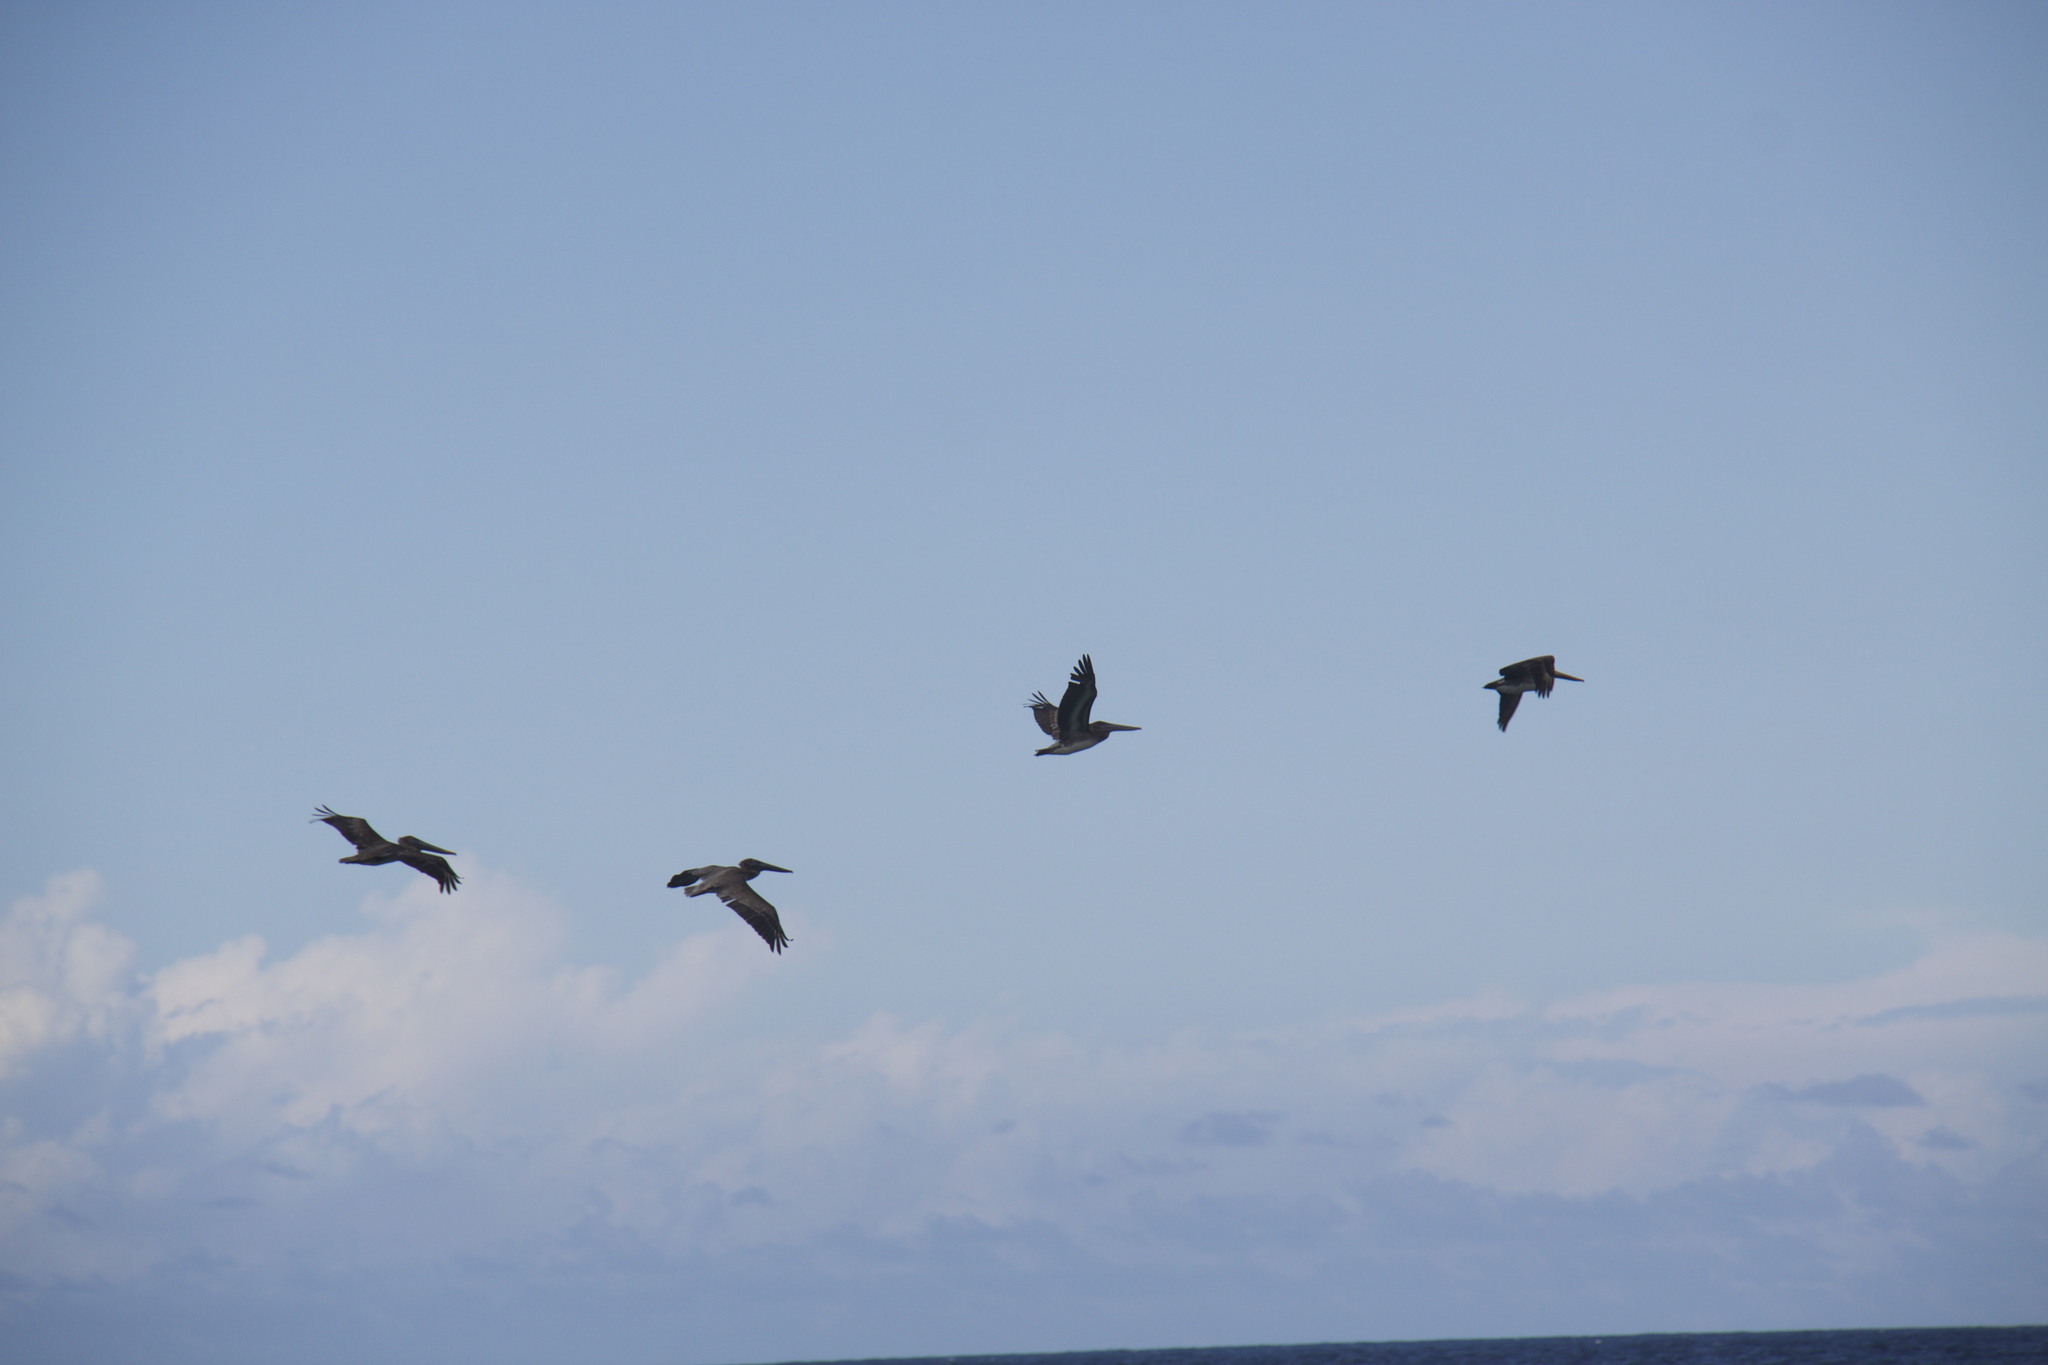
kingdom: Animalia
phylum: Chordata
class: Aves
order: Pelecaniformes
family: Pelecanidae
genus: Pelecanus
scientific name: Pelecanus occidentalis
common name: Brown pelican
